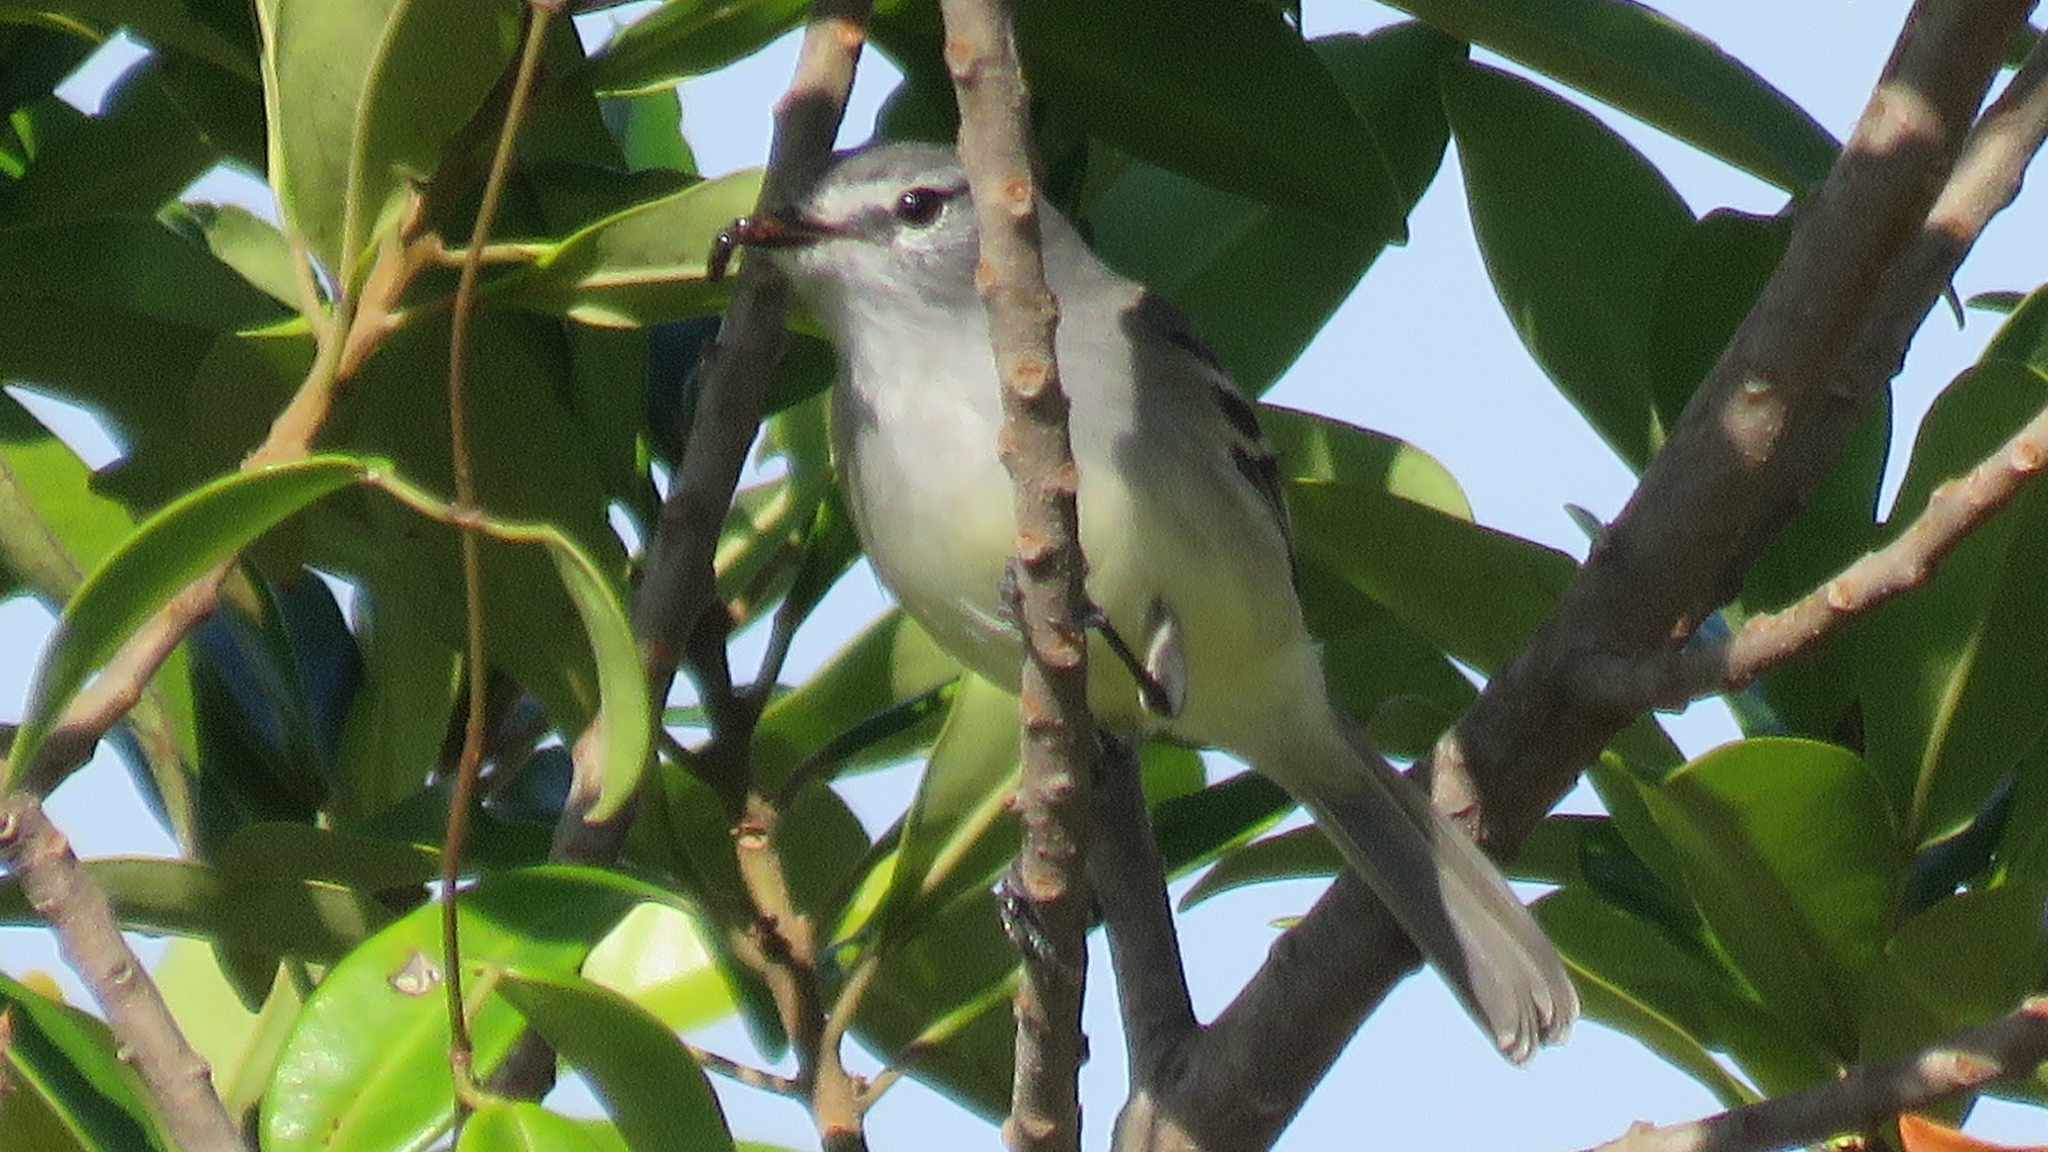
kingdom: Animalia
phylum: Chordata
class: Aves
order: Passeriformes
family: Tyrannidae
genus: Serpophaga
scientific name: Serpophaga subcristata
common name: White-crested tyrannulet
